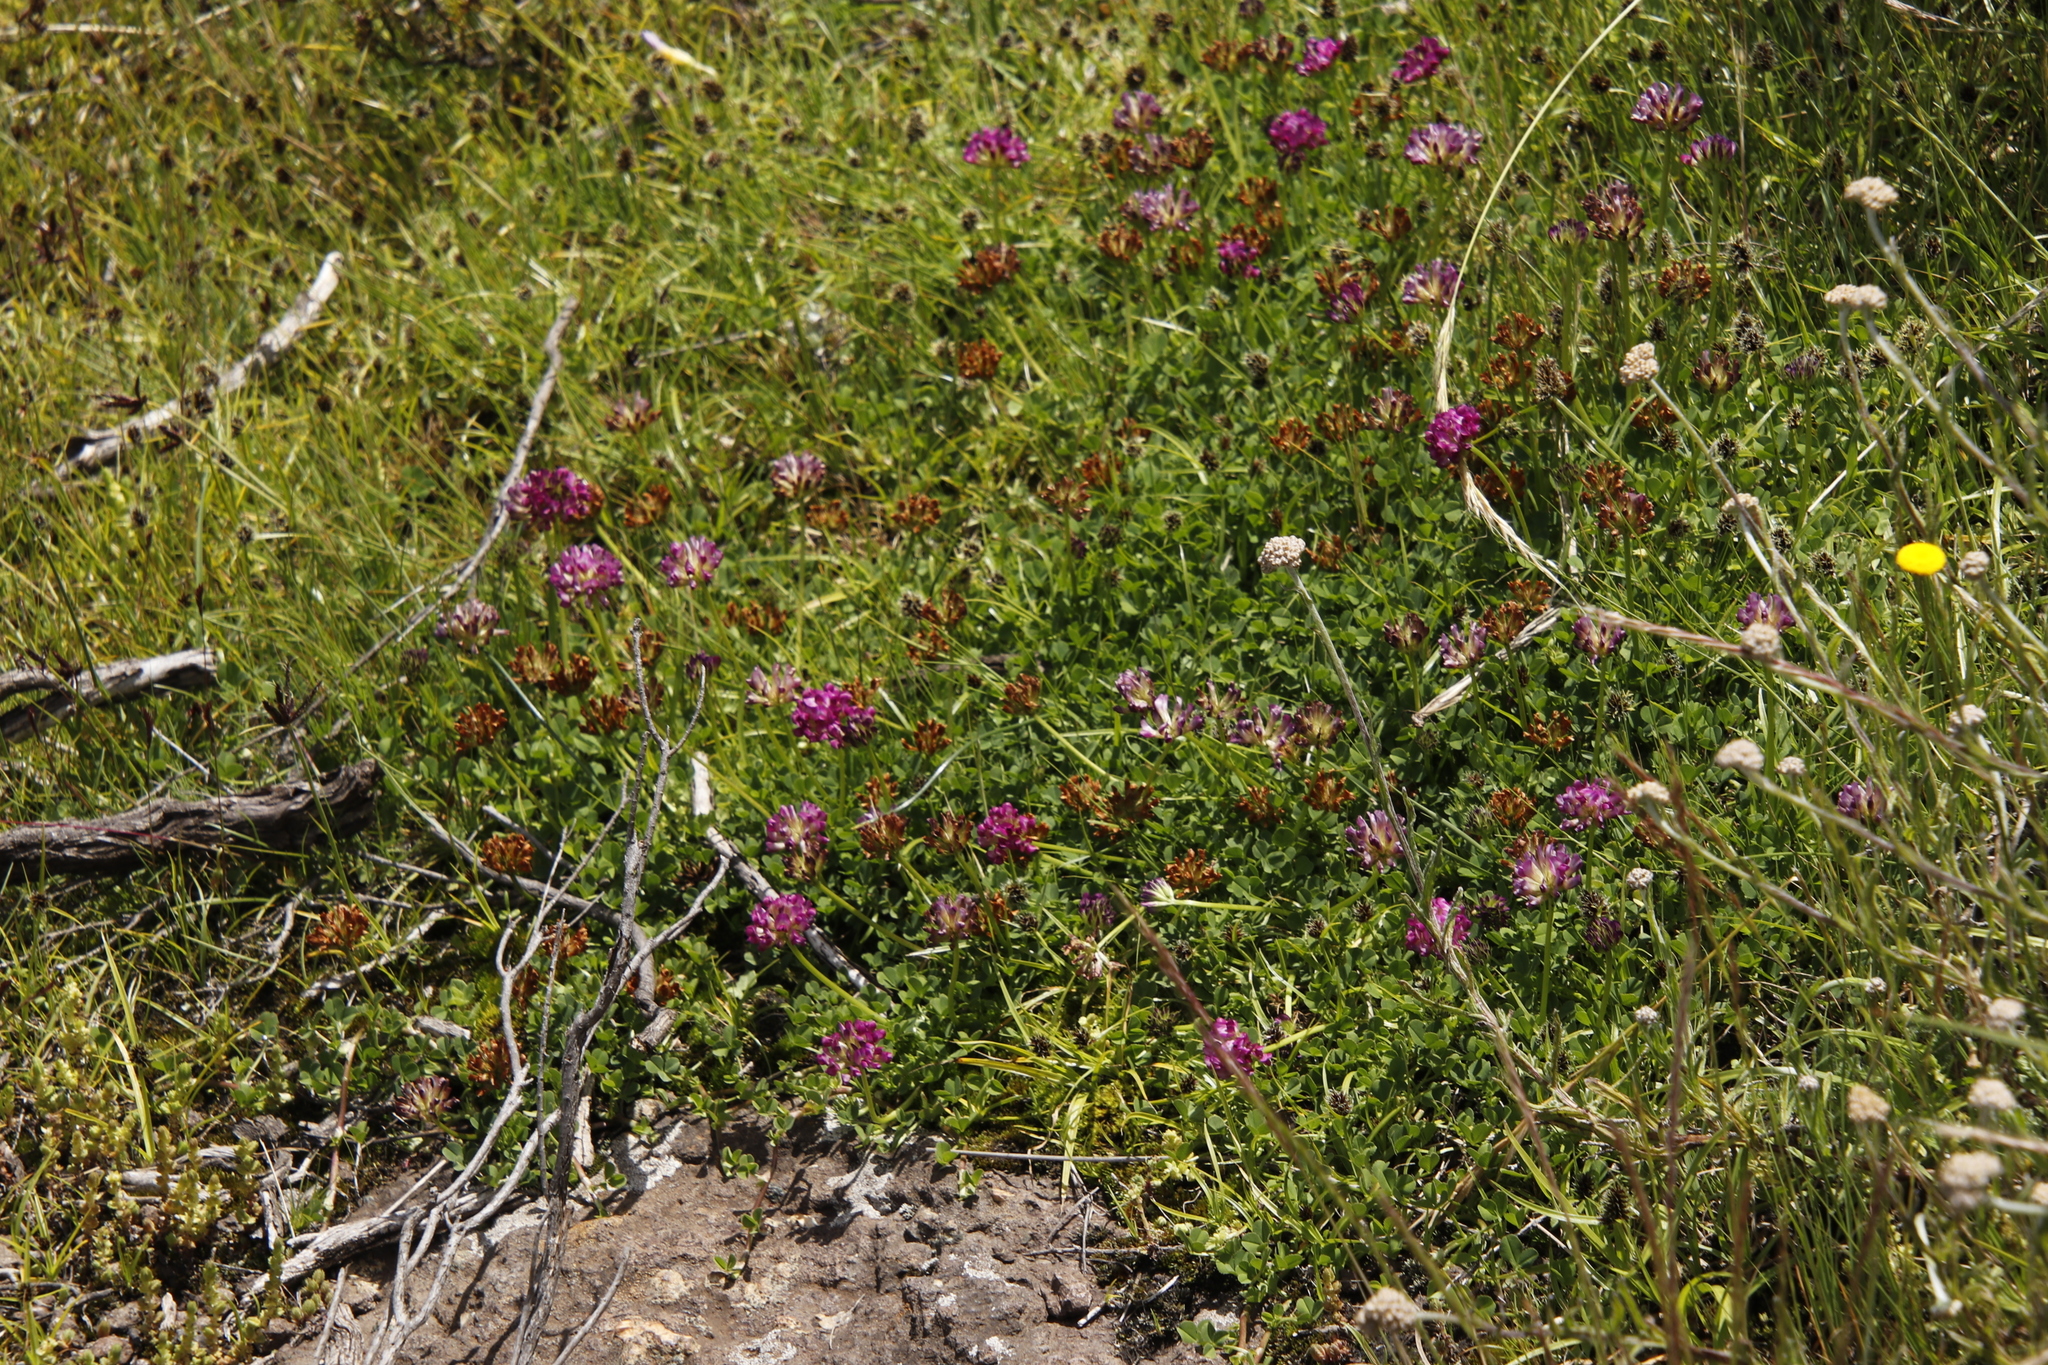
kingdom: Plantae
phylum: Tracheophyta
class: Magnoliopsida
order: Fabales
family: Fabaceae
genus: Trifolium
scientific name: Trifolium burchellianum
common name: Burchell's clover
